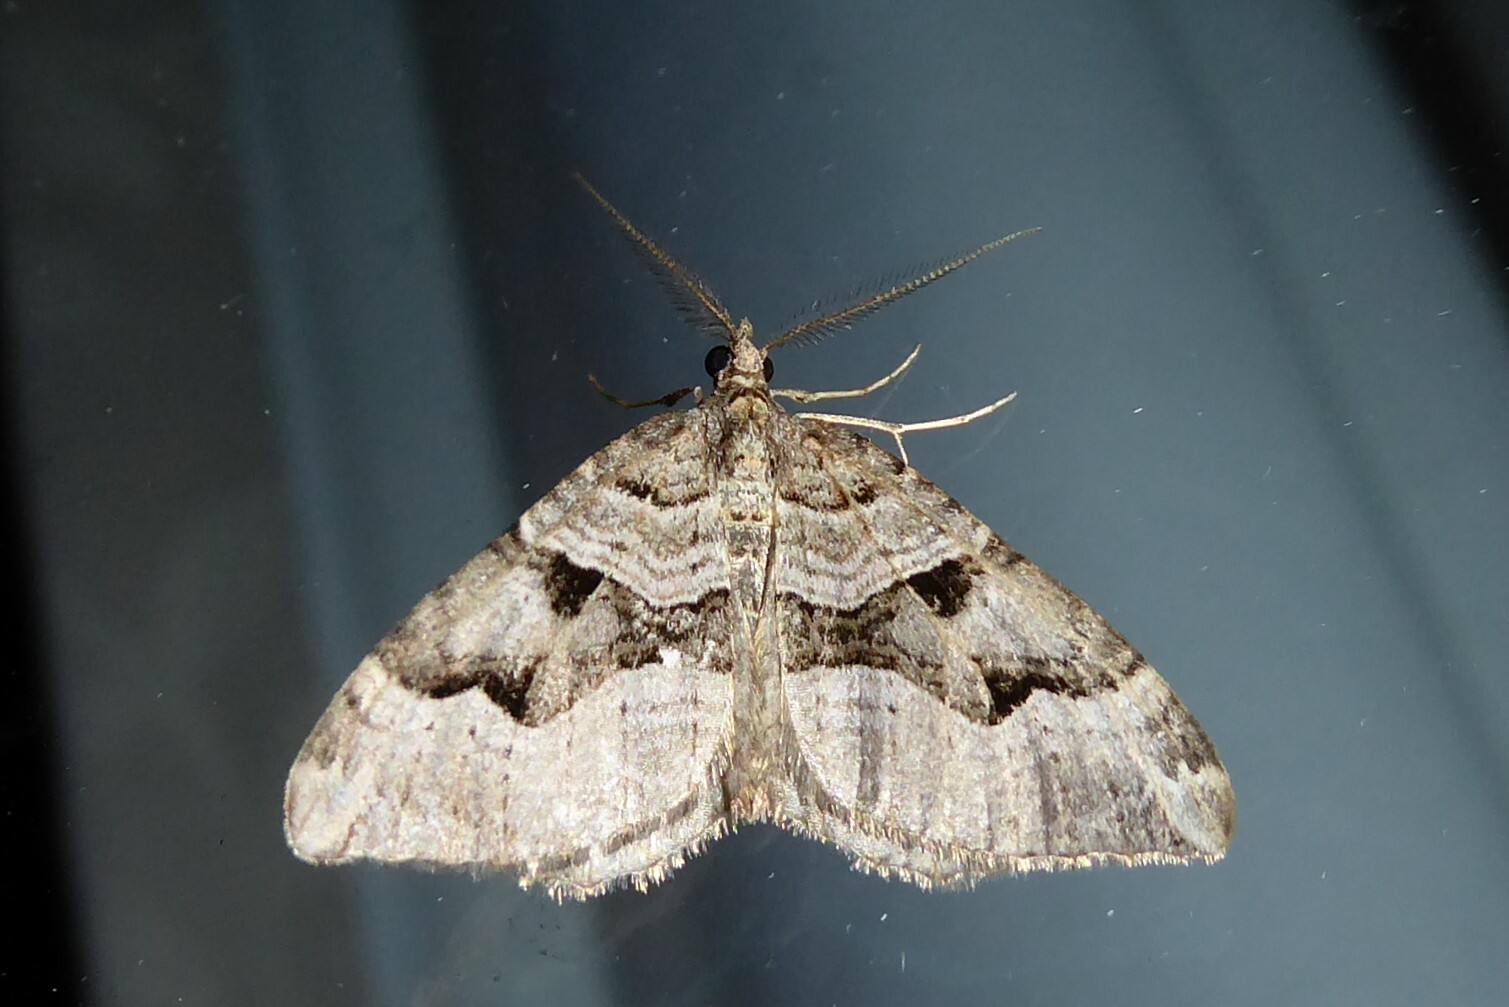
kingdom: Animalia
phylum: Arthropoda
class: Insecta
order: Lepidoptera
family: Geometridae
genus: Xanthorhoe
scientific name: Xanthorhoe semifissata
